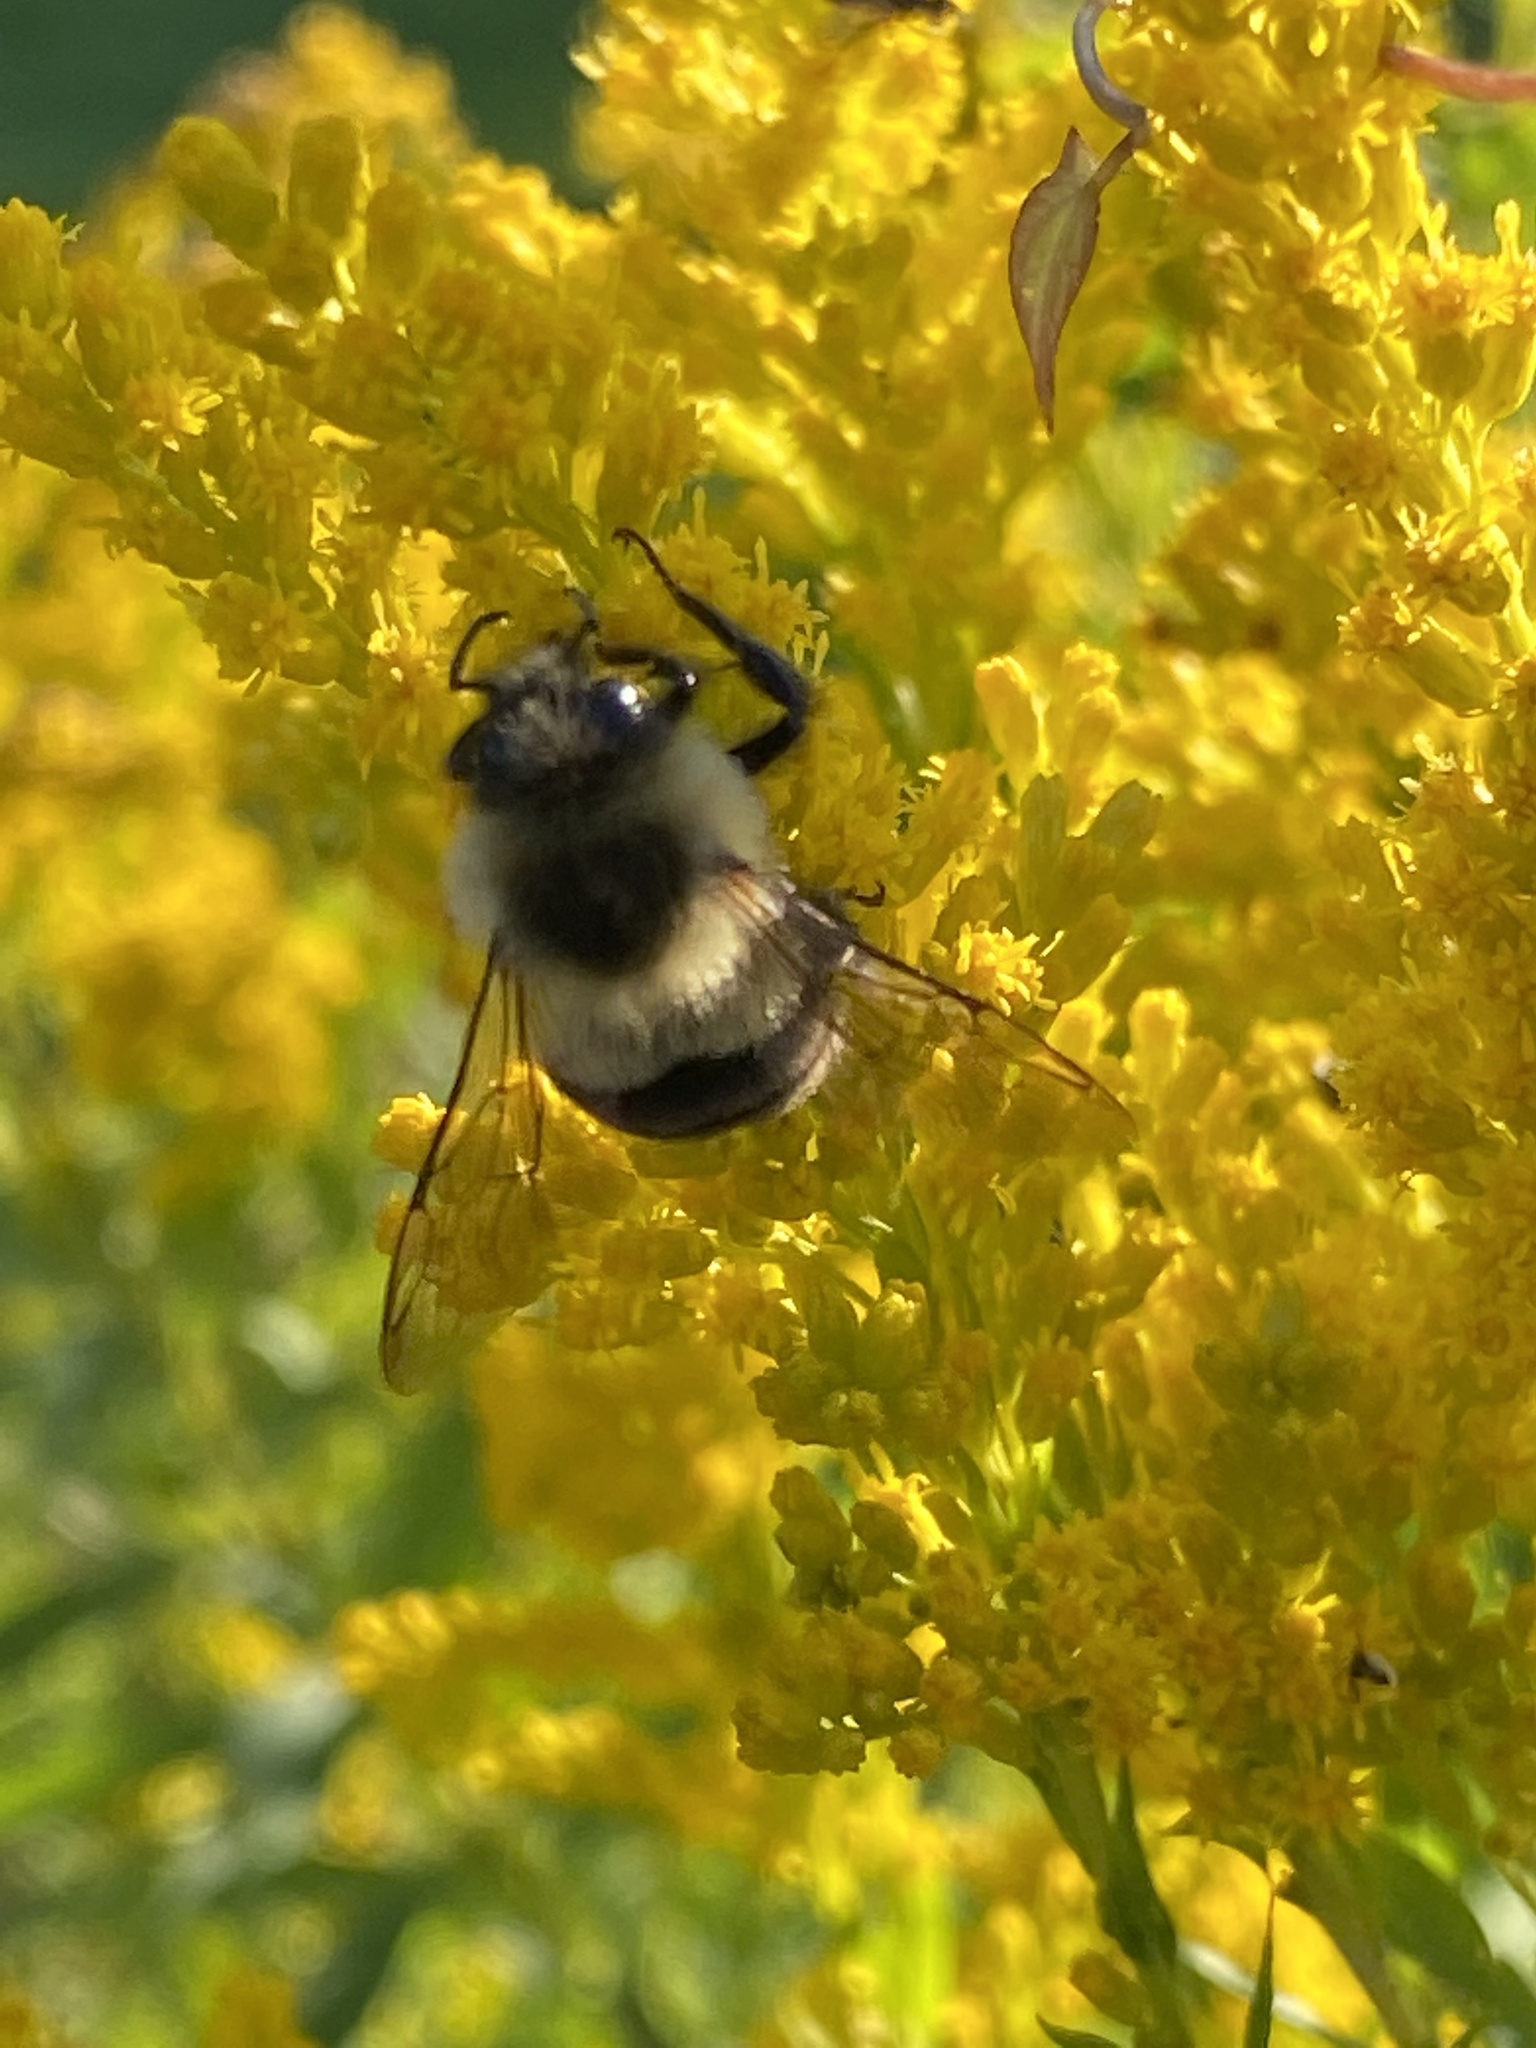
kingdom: Animalia
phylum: Arthropoda
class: Insecta
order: Hymenoptera
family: Apidae
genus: Bombus
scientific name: Bombus impatiens
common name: Common eastern bumble bee
